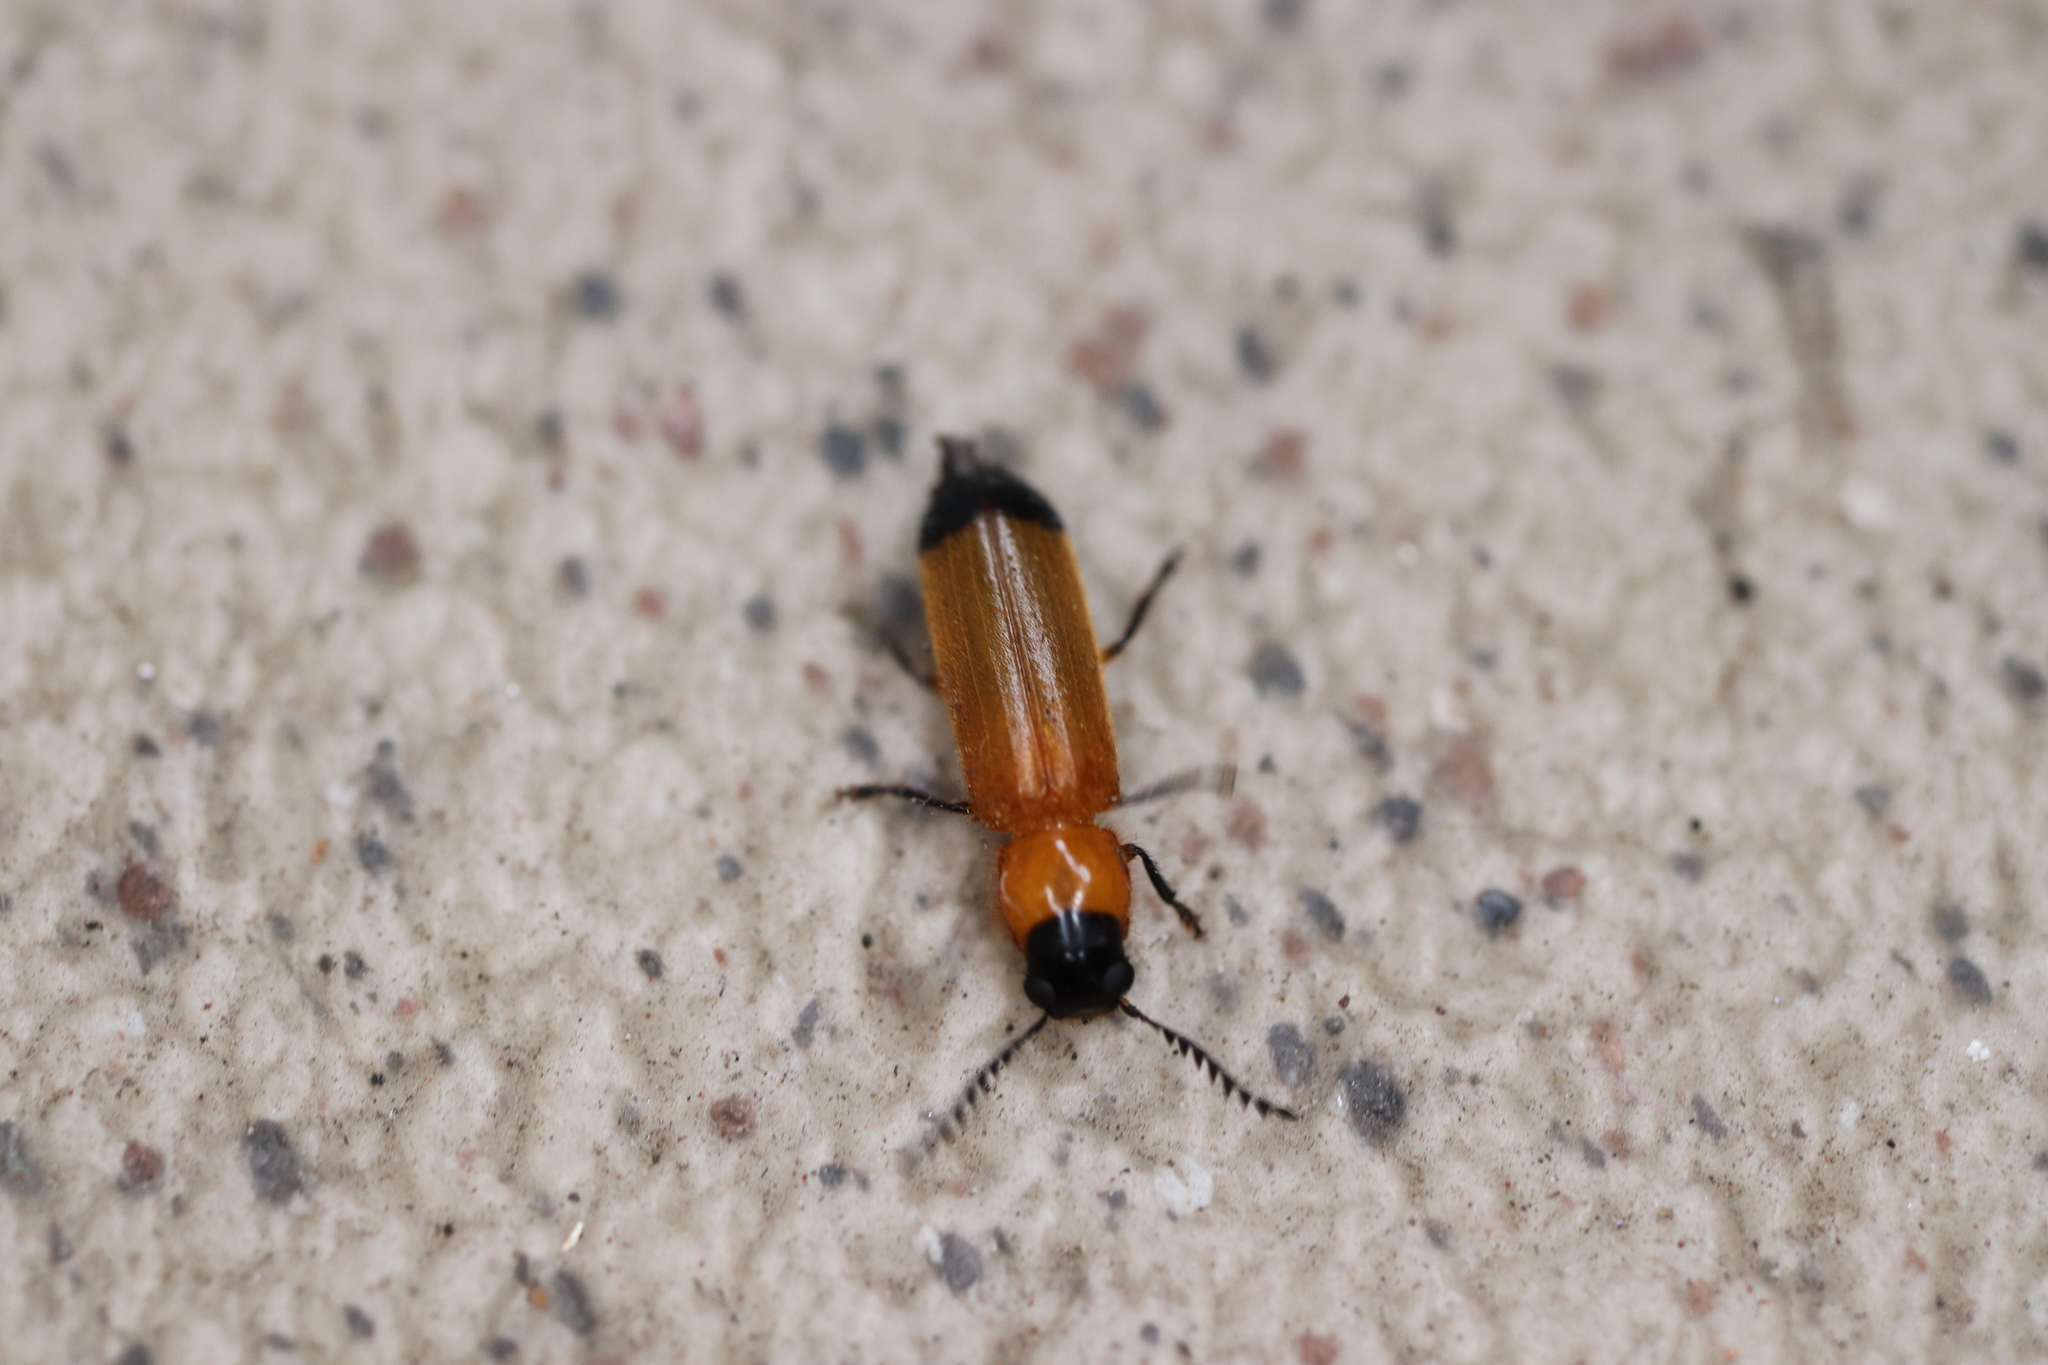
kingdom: Animalia
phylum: Arthropoda
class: Insecta
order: Coleoptera
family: Cleridae
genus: Tenerus
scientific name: Tenerus hilleri
